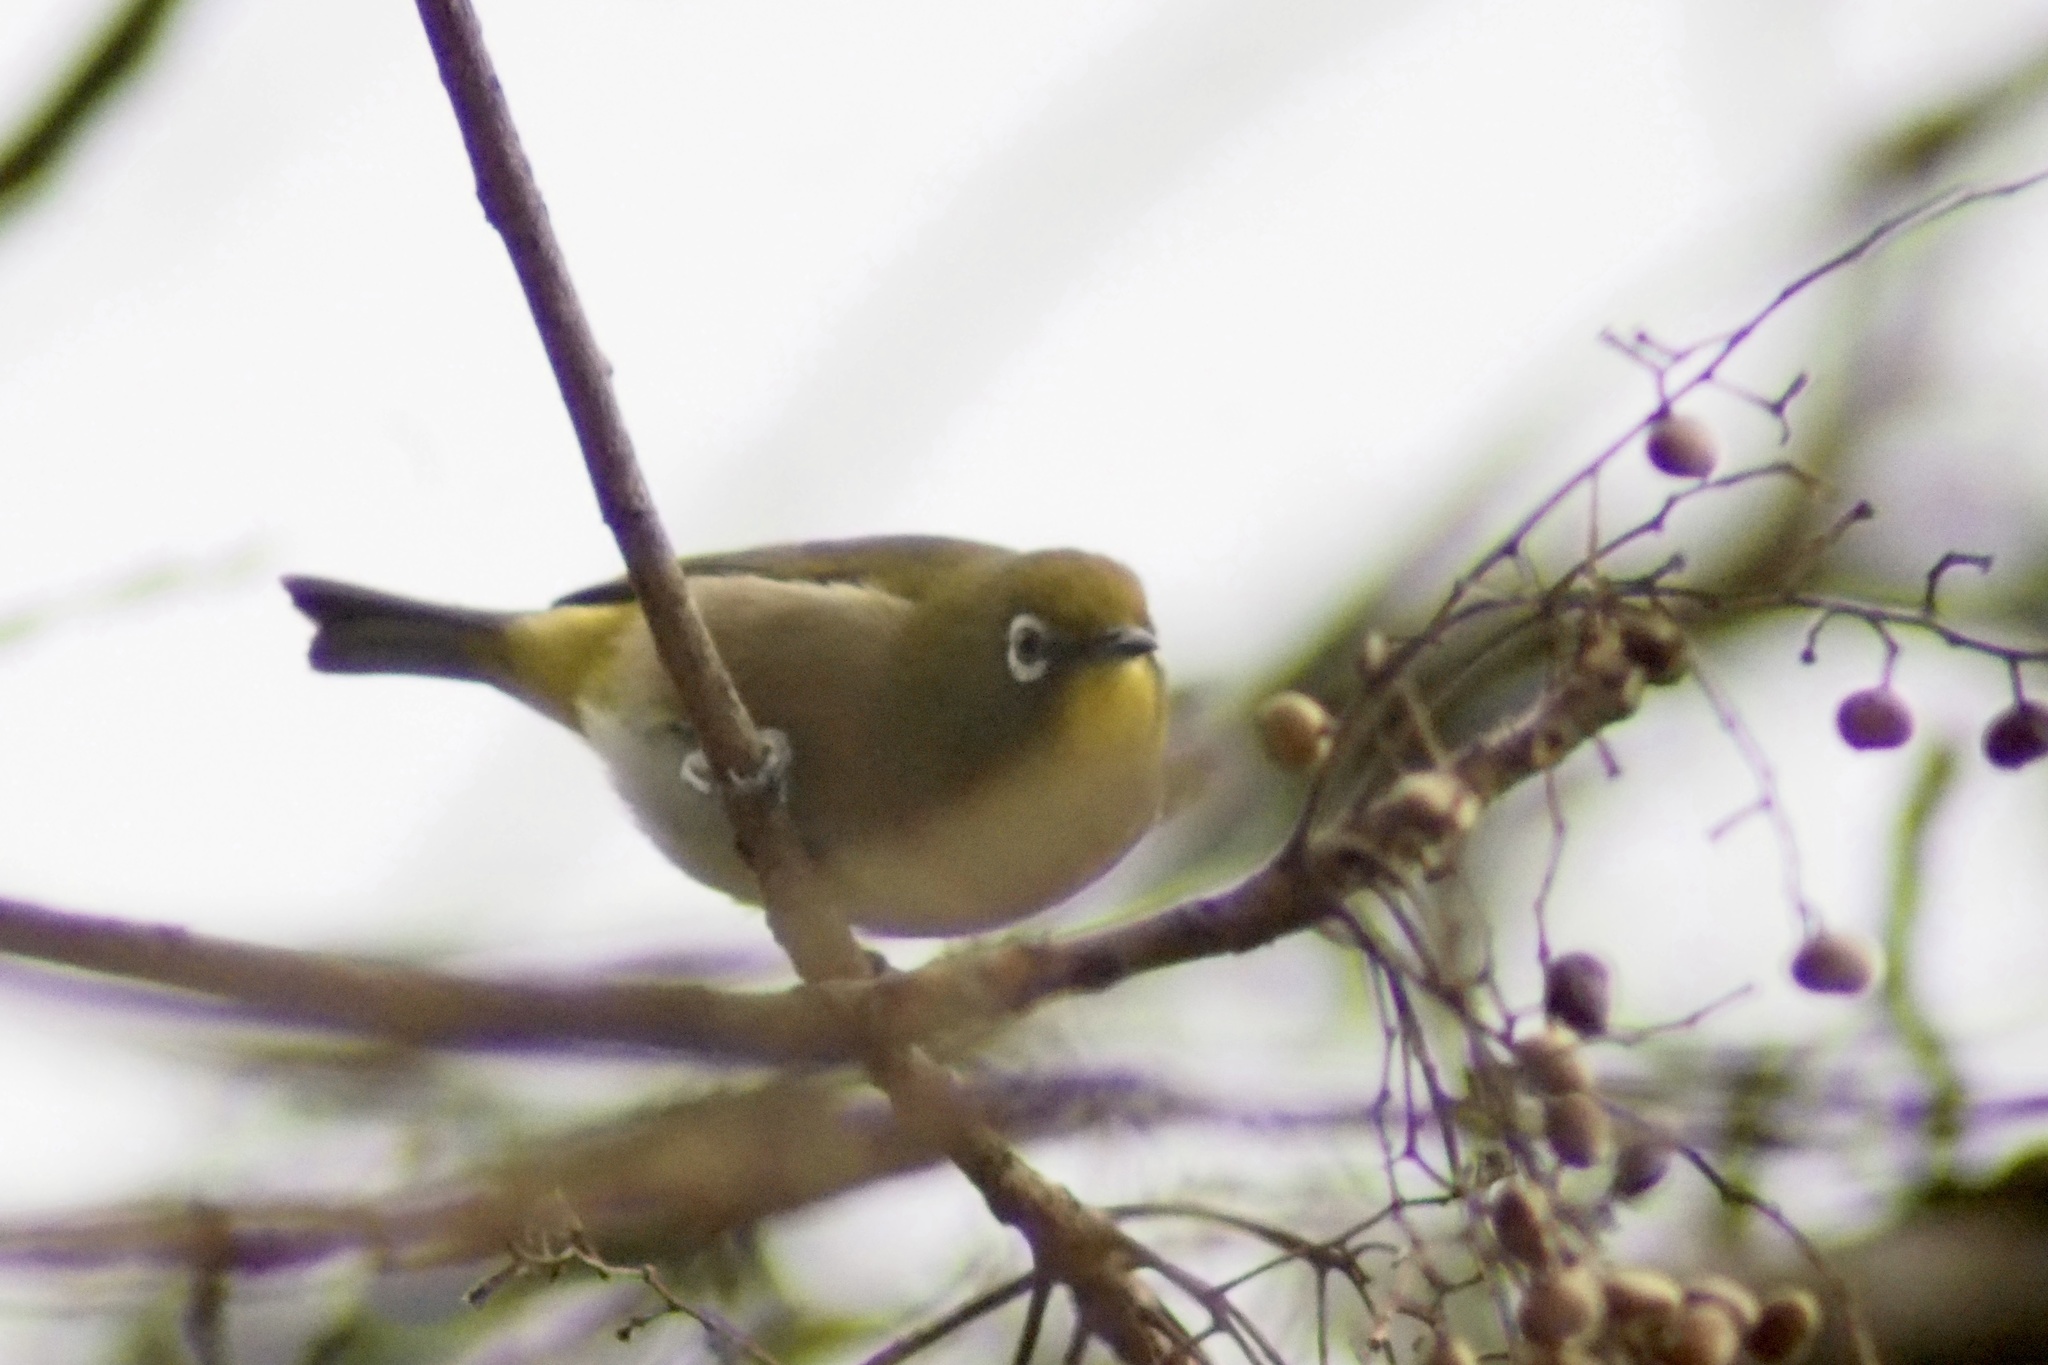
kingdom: Animalia
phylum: Chordata
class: Aves
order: Passeriformes
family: Zosteropidae
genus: Zosterops
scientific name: Zosterops japonicus
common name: Japanese white-eye
